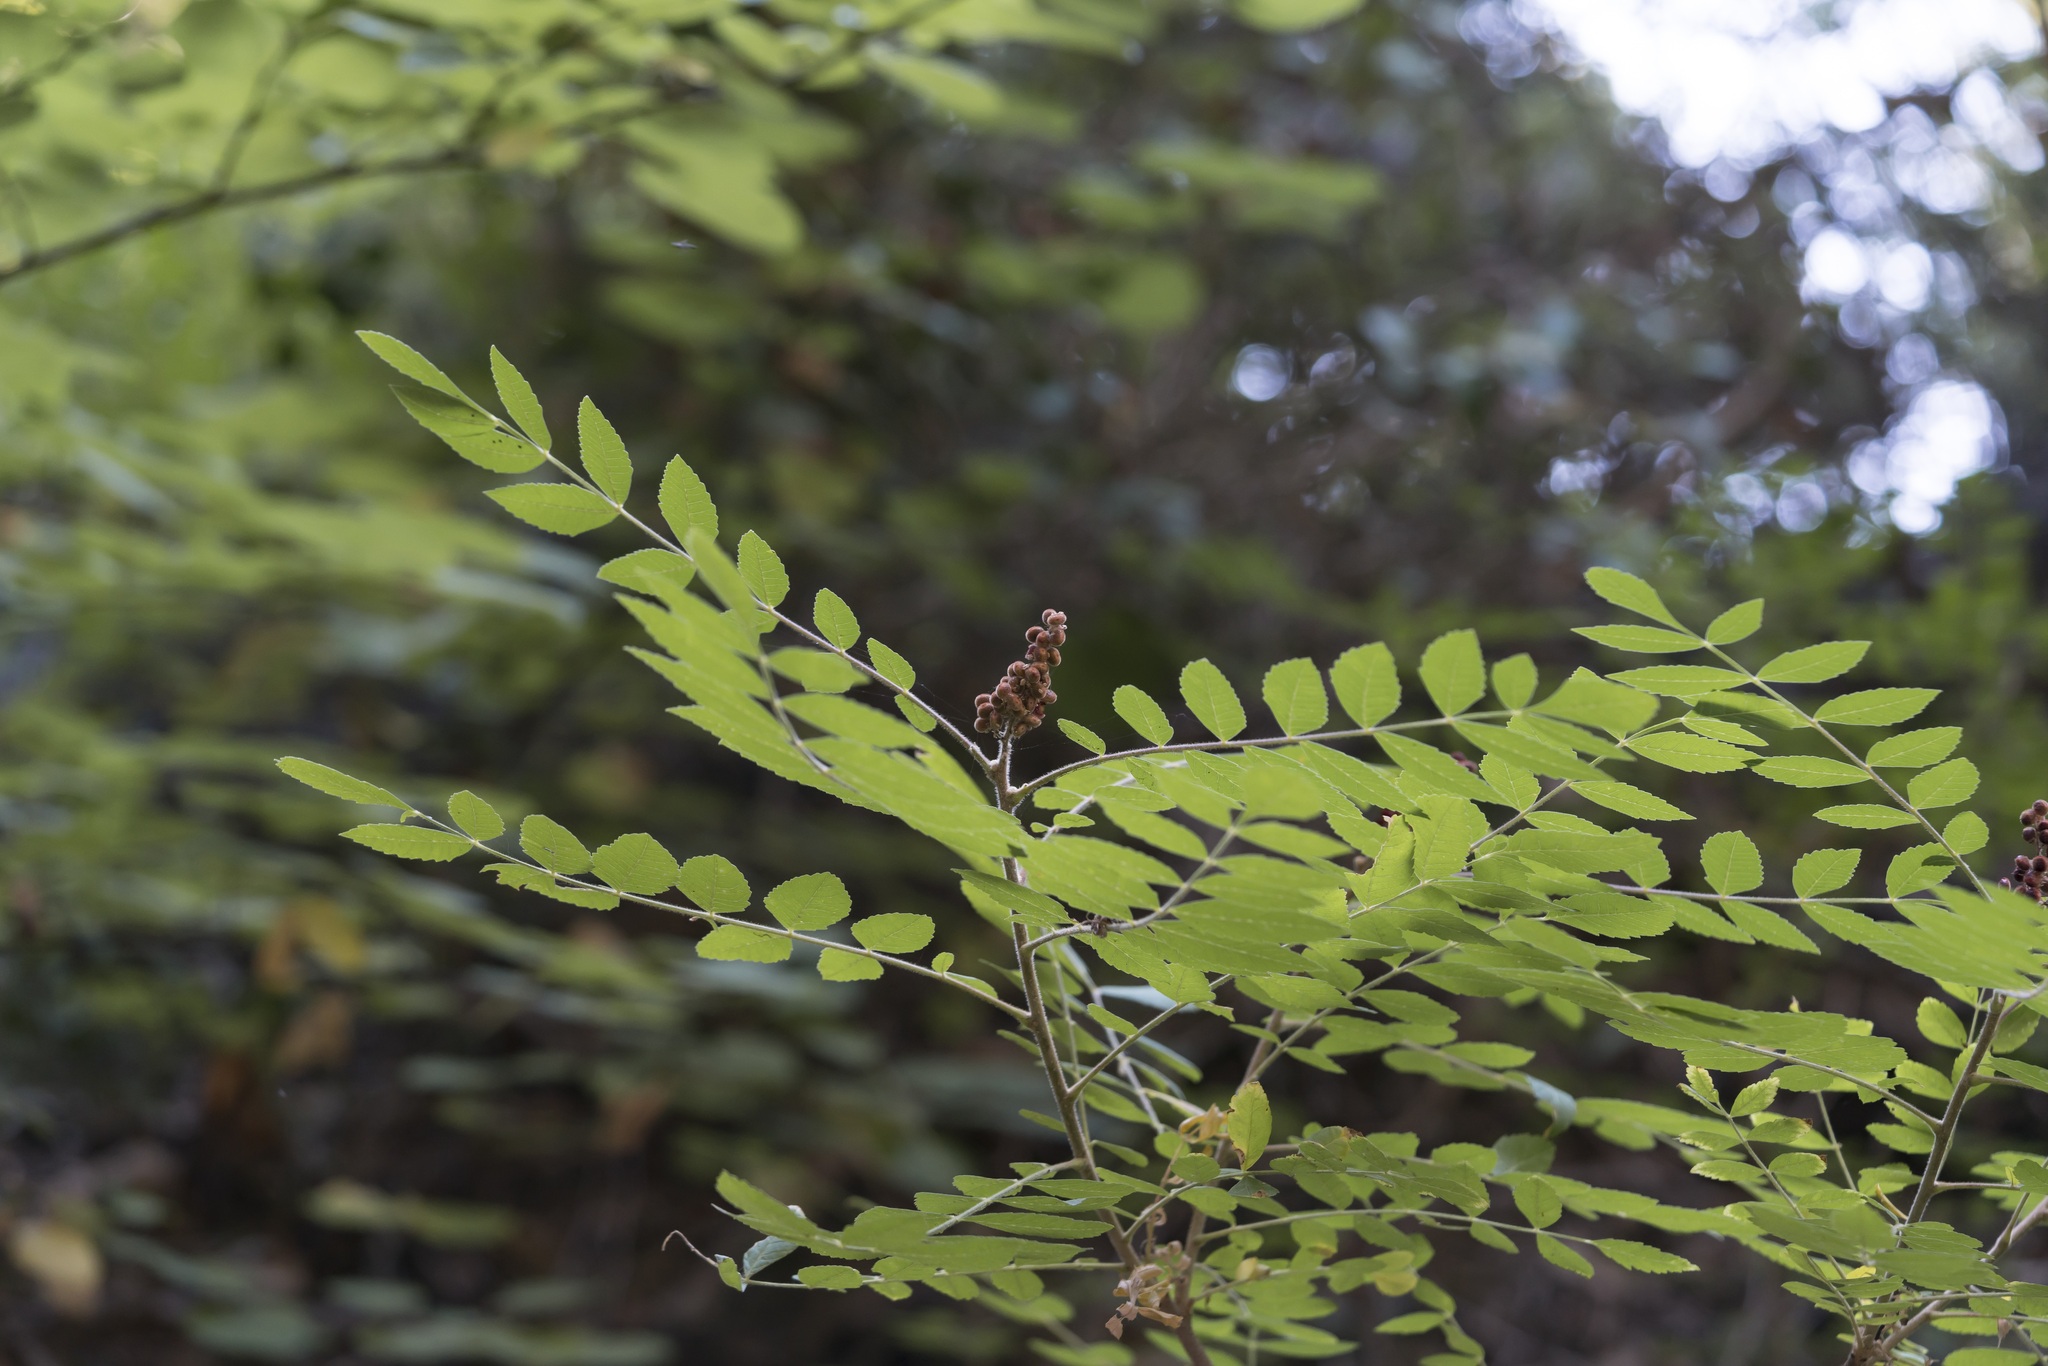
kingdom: Plantae
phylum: Tracheophyta
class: Magnoliopsida
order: Sapindales
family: Anacardiaceae
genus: Rhus
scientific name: Rhus coriaria
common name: Tanner's sumach
